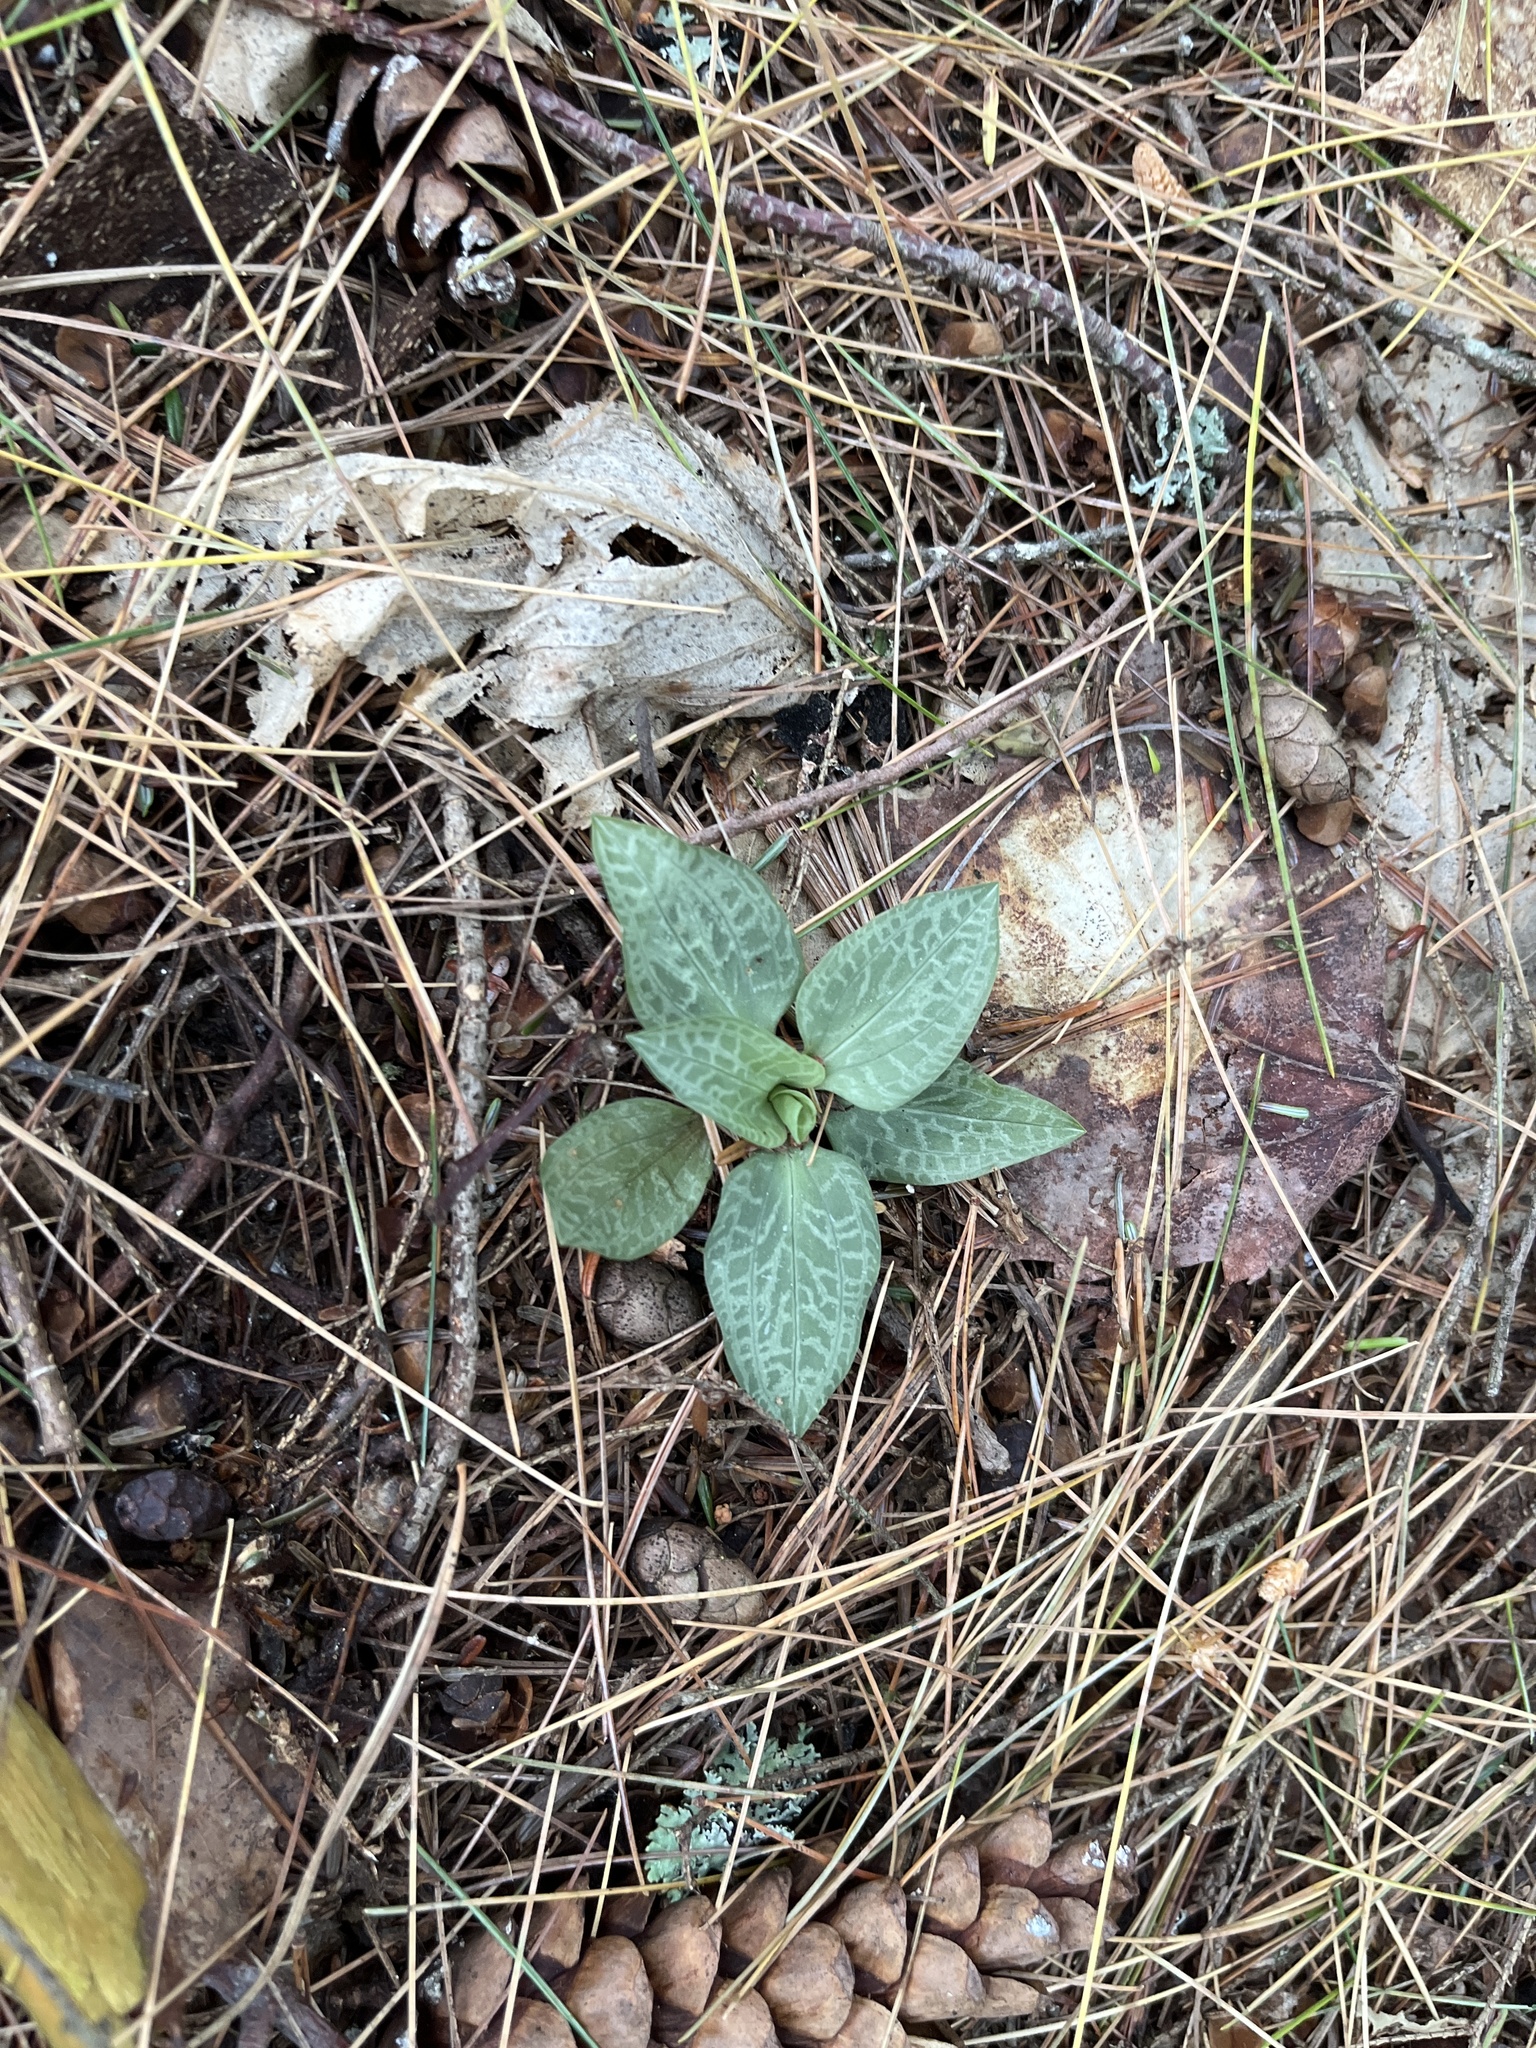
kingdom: Plantae
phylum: Tracheophyta
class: Liliopsida
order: Asparagales
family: Orchidaceae
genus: Goodyera
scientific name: Goodyera tesselata
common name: Checkered rattlesnake-plantain
